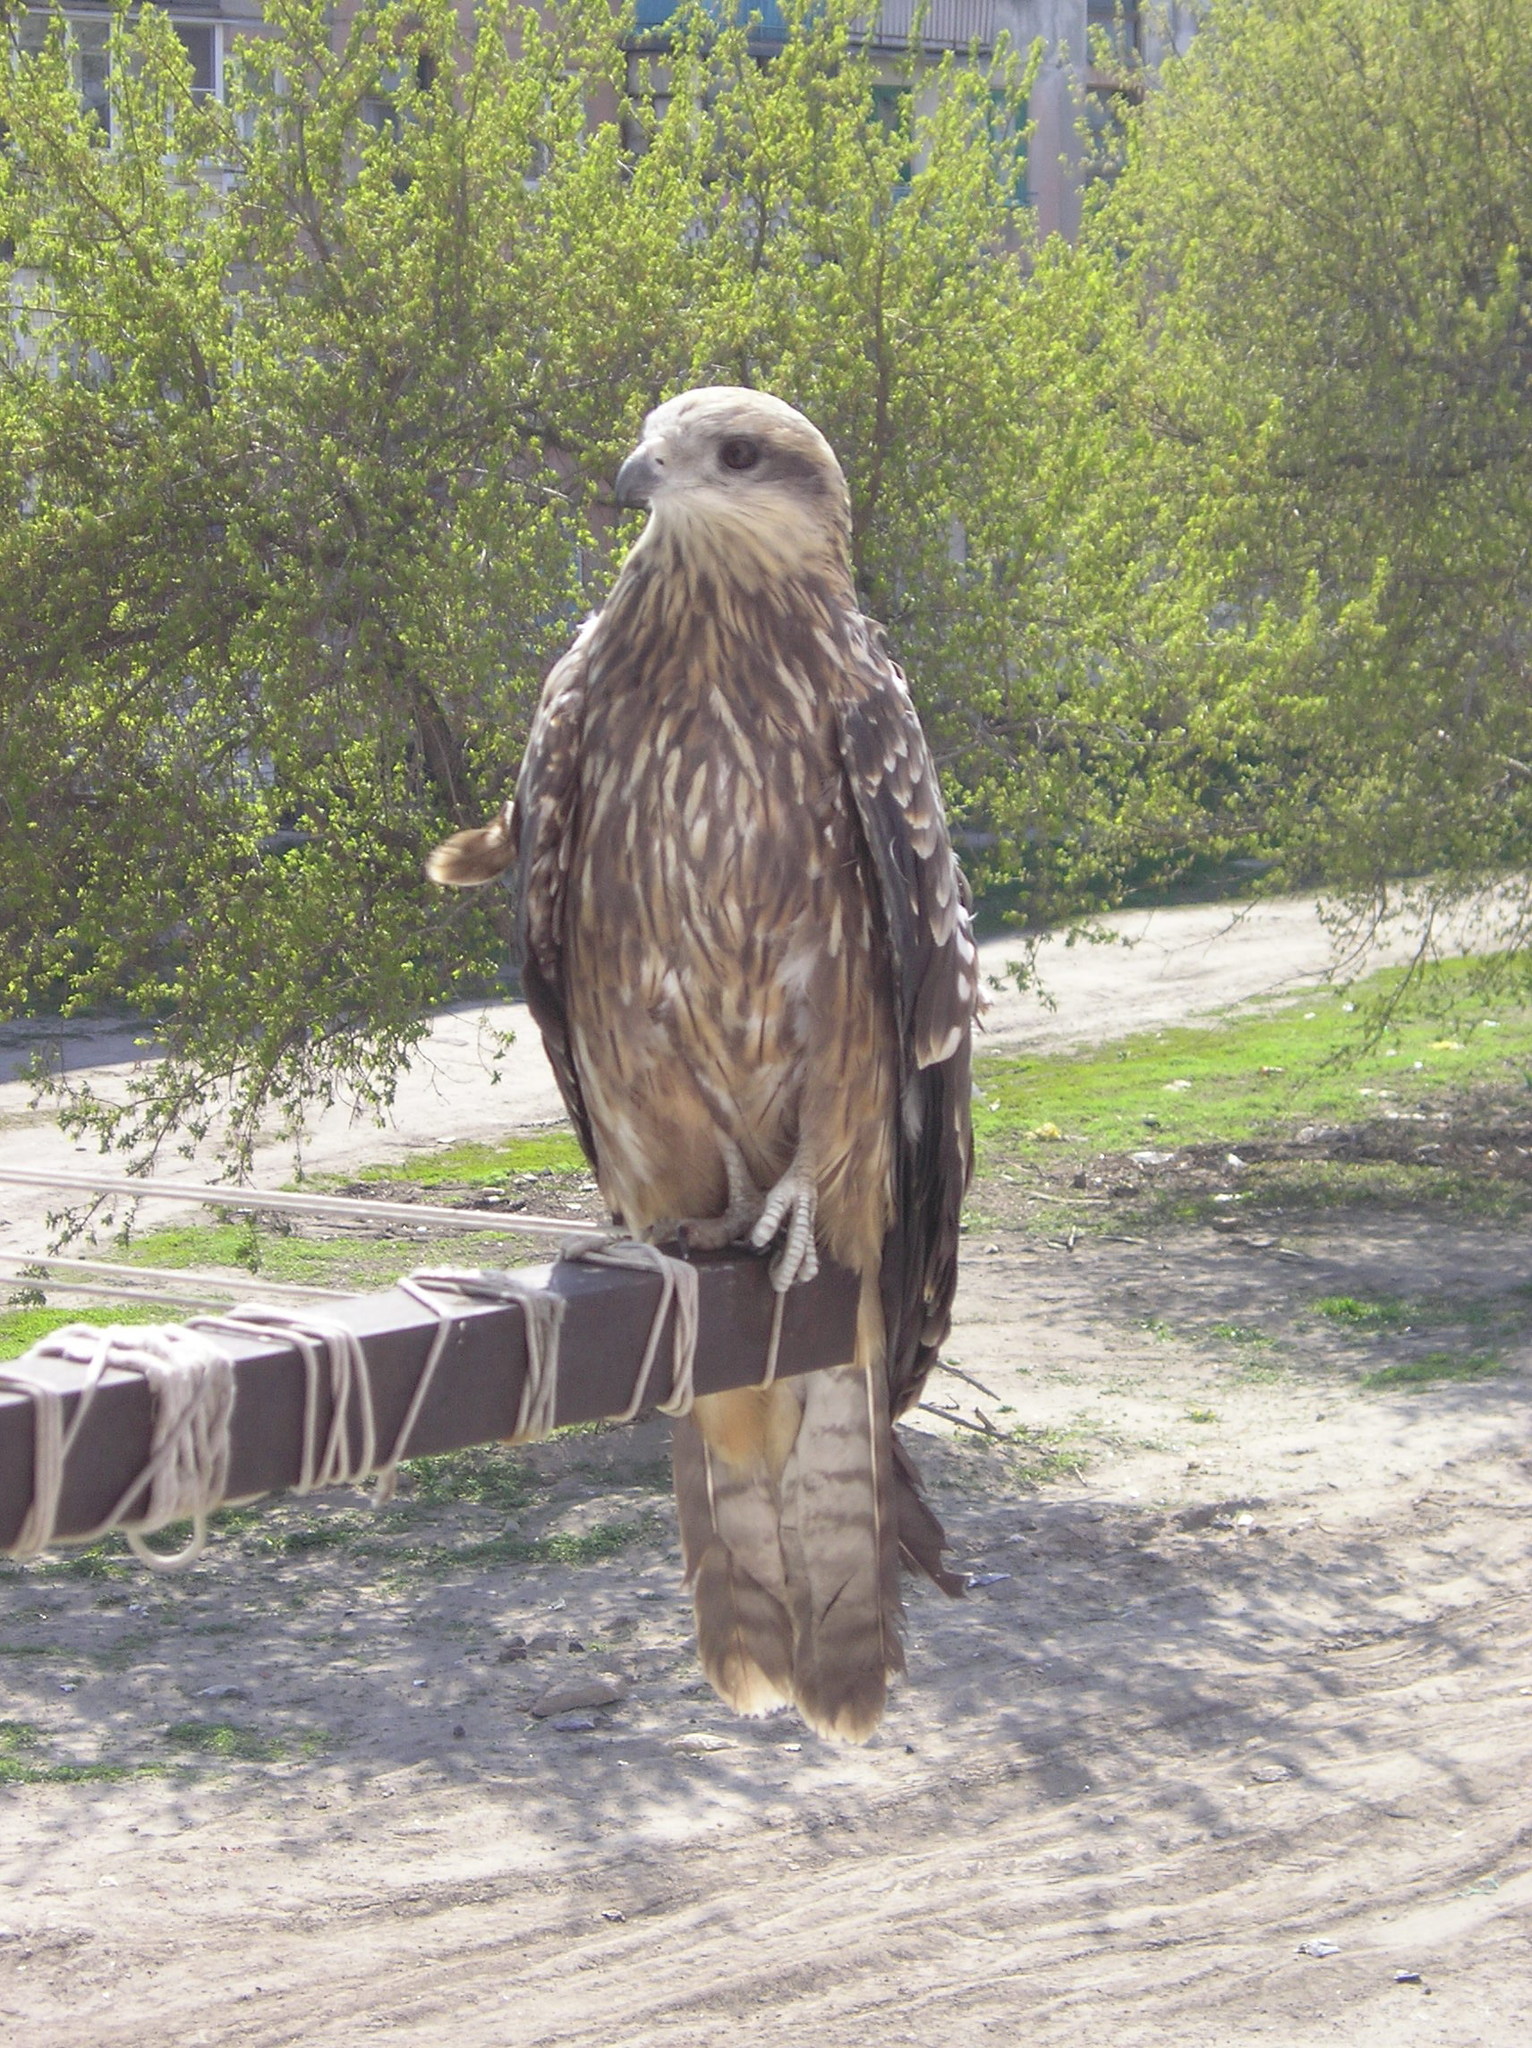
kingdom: Animalia
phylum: Chordata
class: Aves
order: Accipitriformes
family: Accipitridae
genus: Milvus
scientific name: Milvus migrans
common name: Black kite
